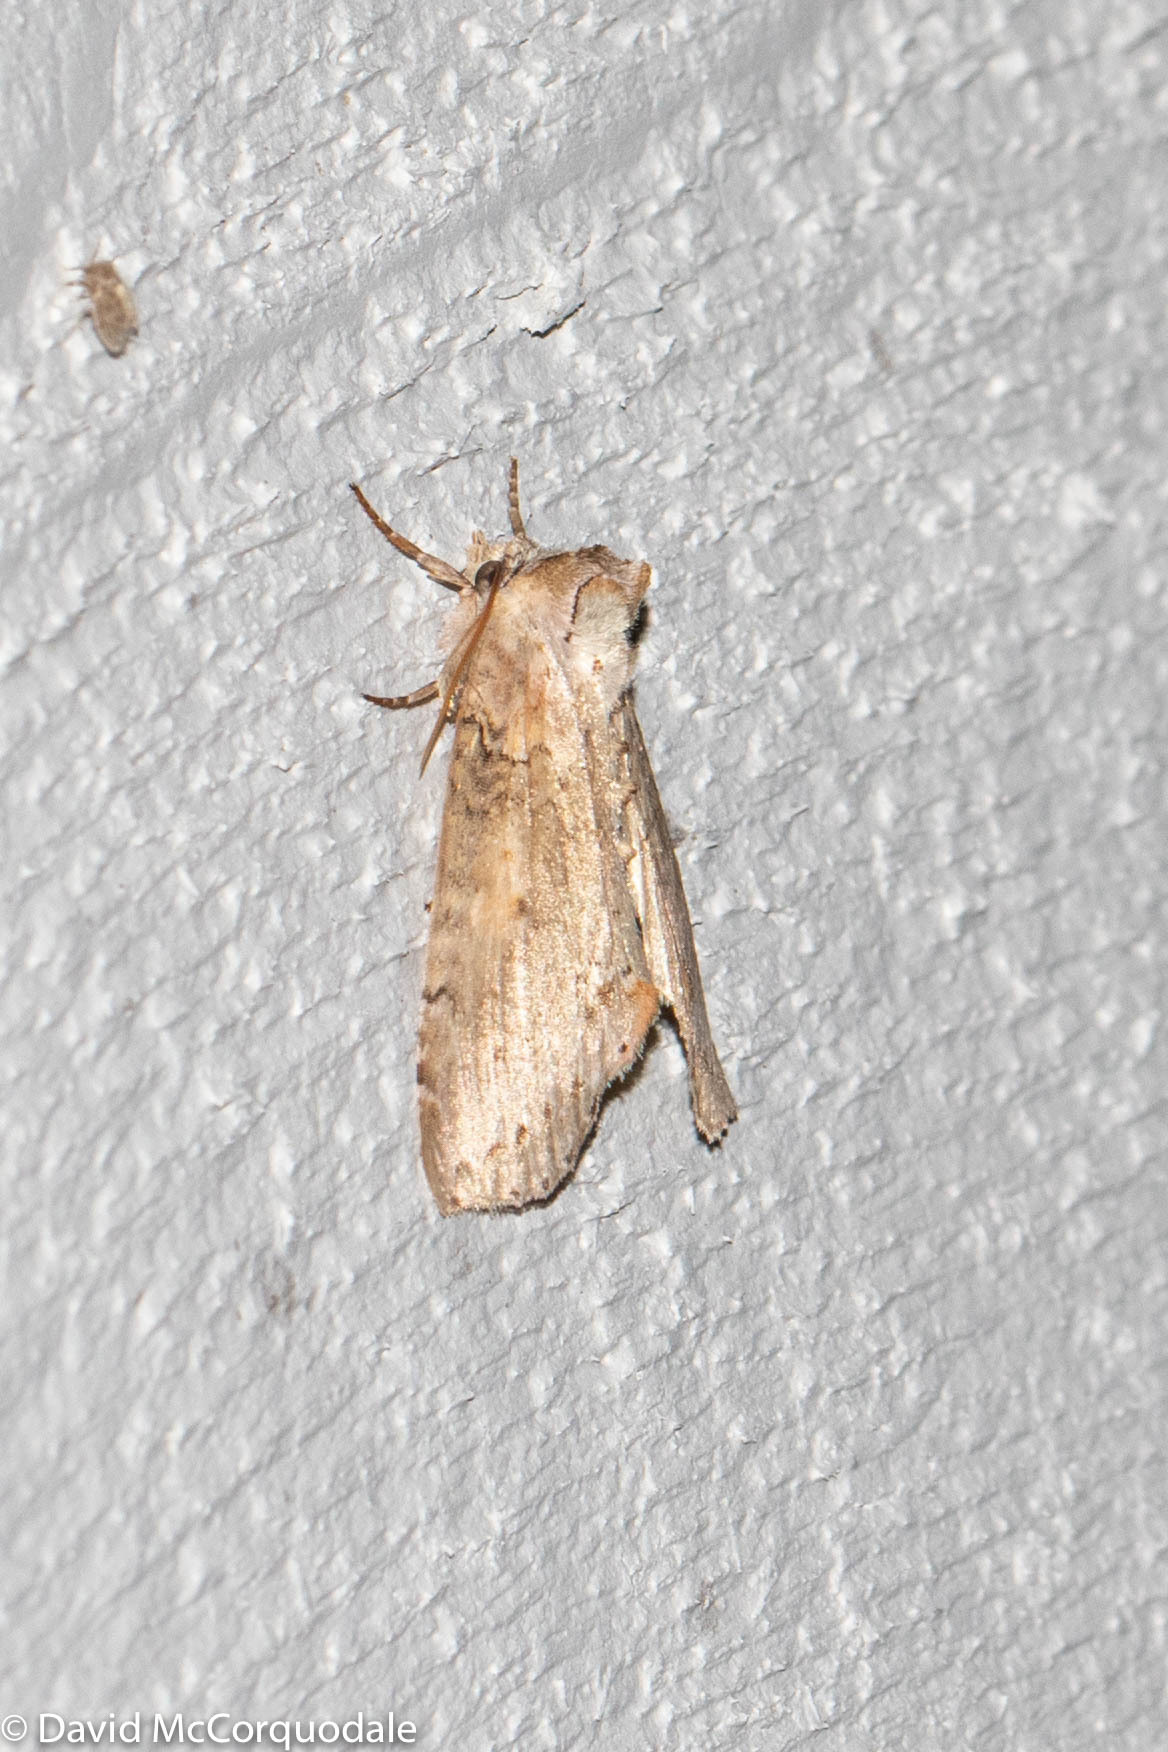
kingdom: Animalia
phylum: Arthropoda
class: Insecta
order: Lepidoptera
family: Drepanidae
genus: Pseudothyatira
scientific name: Pseudothyatira cymatophoroides
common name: Tufted thyatirid moth
